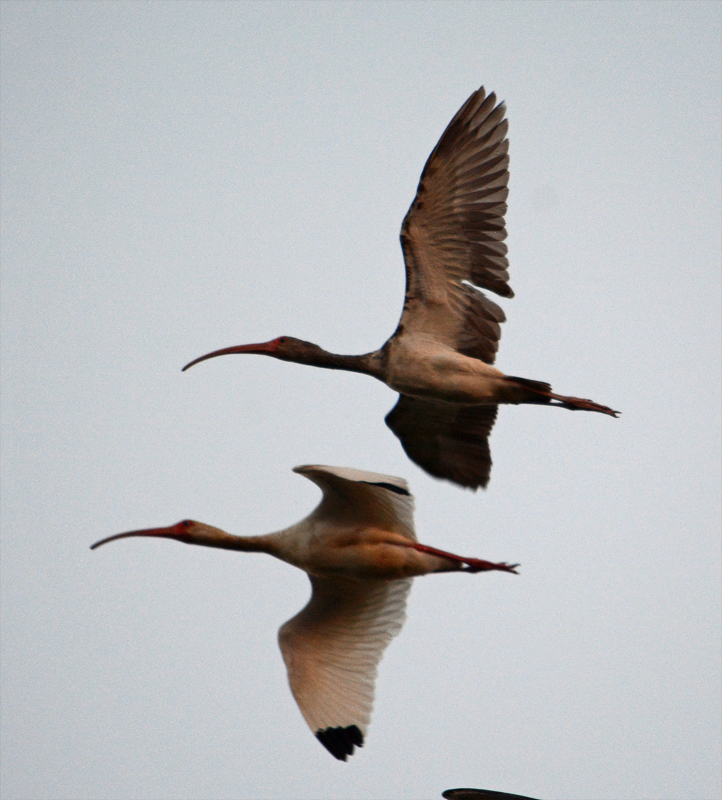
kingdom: Animalia
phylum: Chordata
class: Aves
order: Pelecaniformes
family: Threskiornithidae
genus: Eudocimus
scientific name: Eudocimus albus
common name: White ibis
